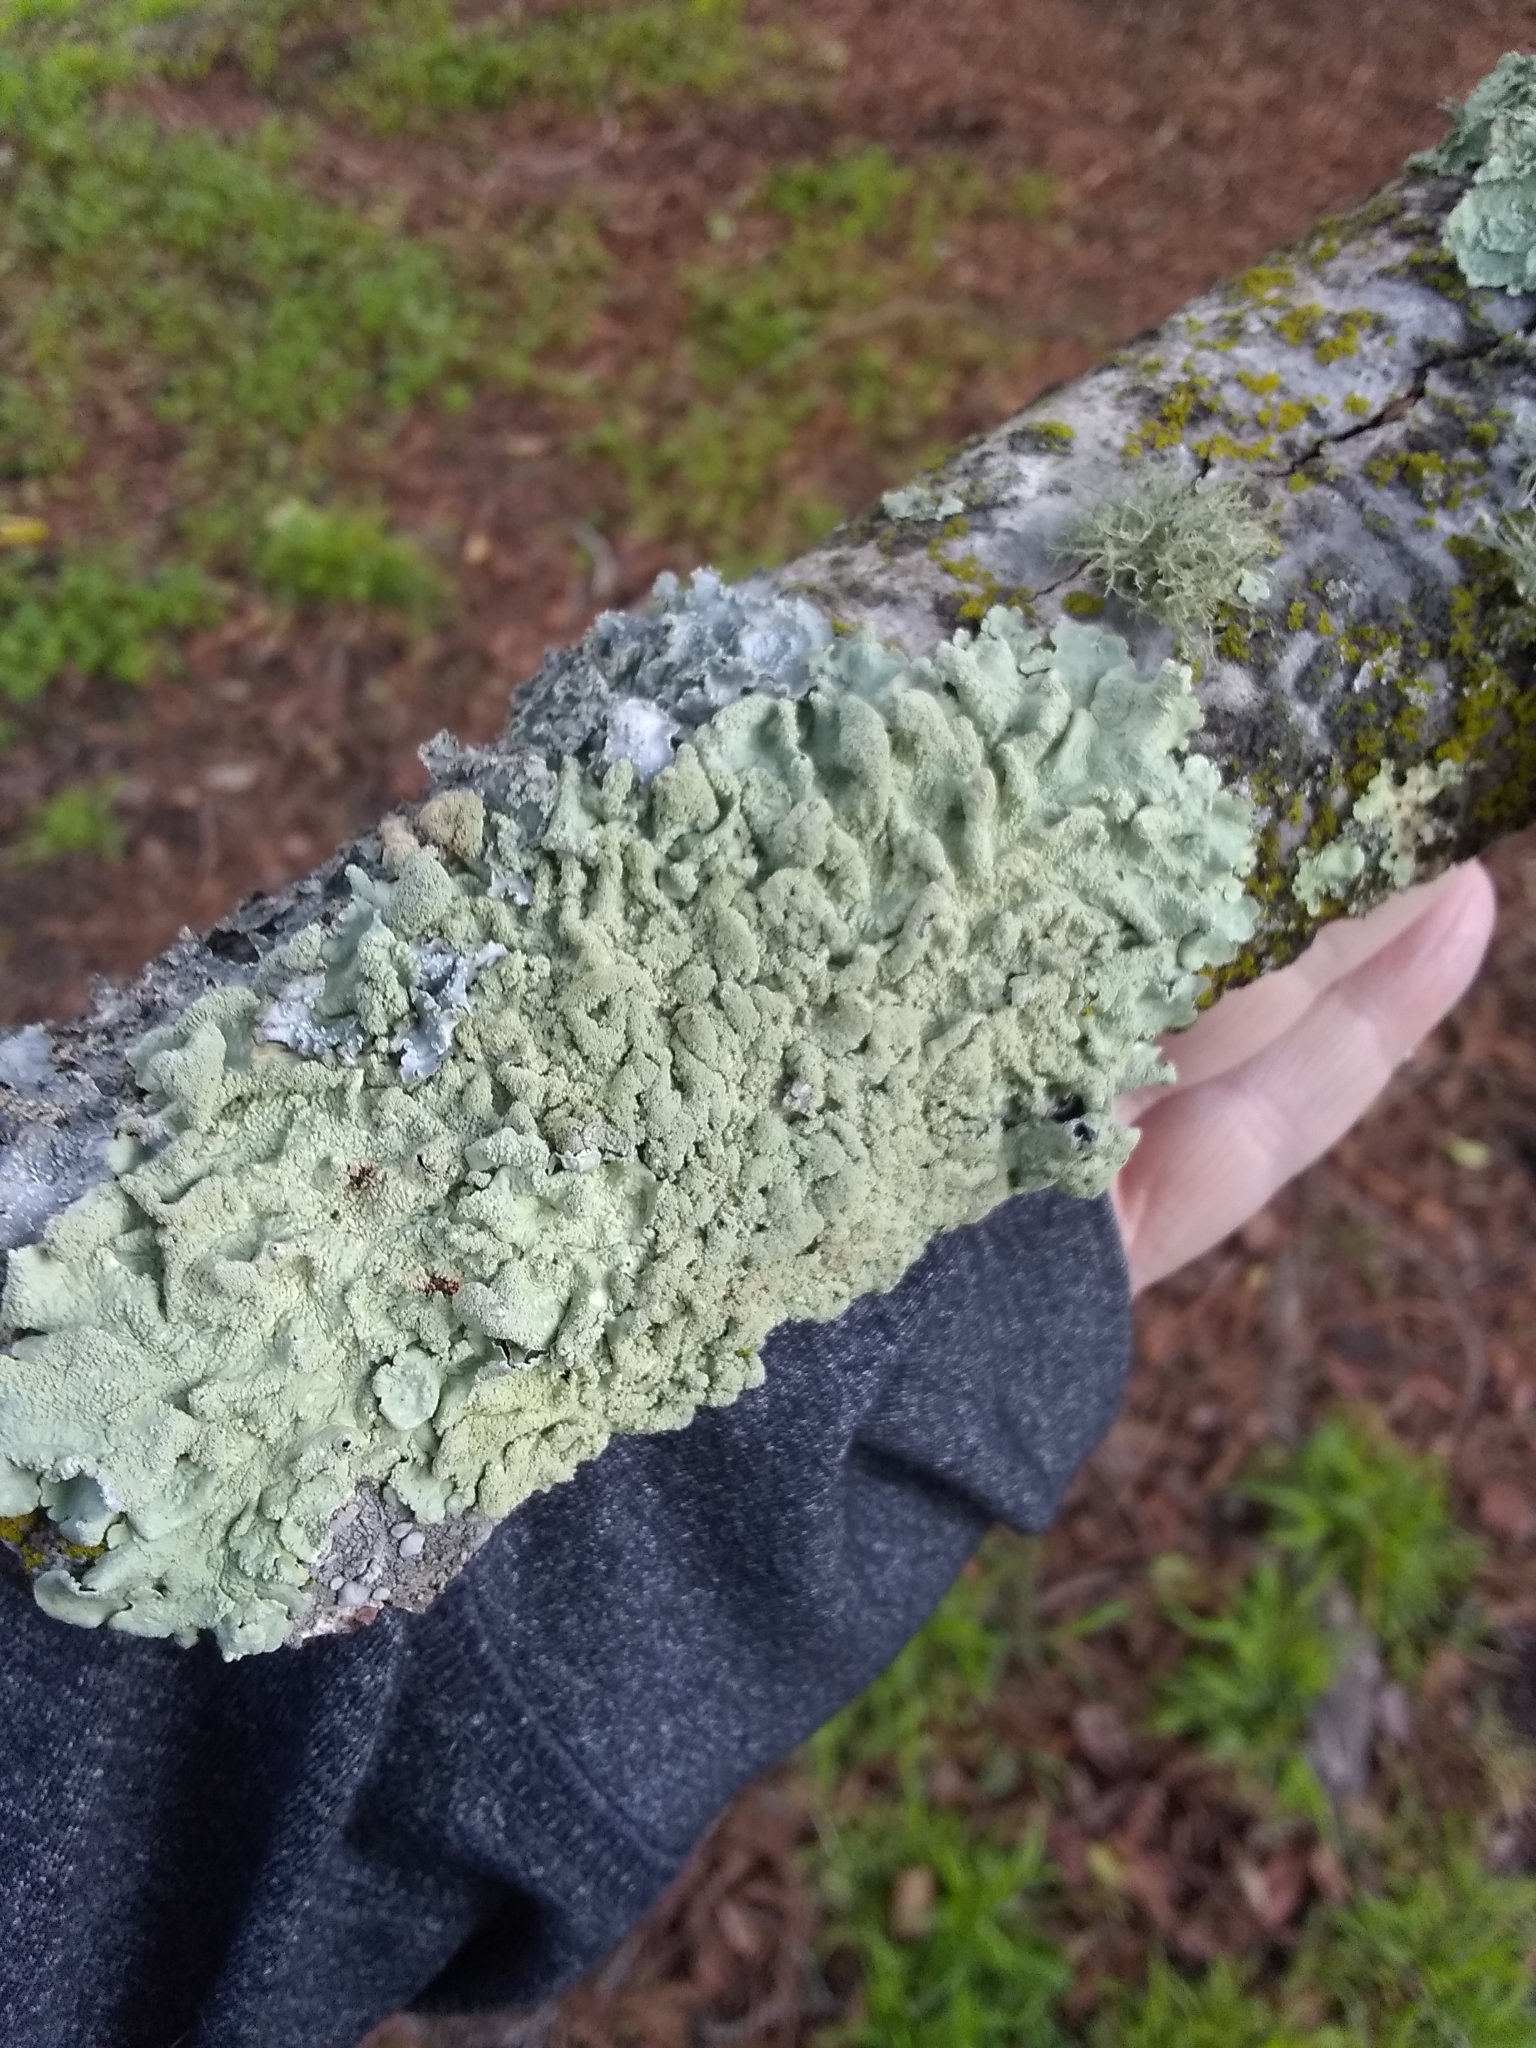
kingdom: Fungi
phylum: Ascomycota
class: Lecanoromycetes
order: Lecanorales
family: Parmeliaceae
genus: Flavoparmelia
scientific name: Flavoparmelia caperata
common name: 40-mile per hour lichen
